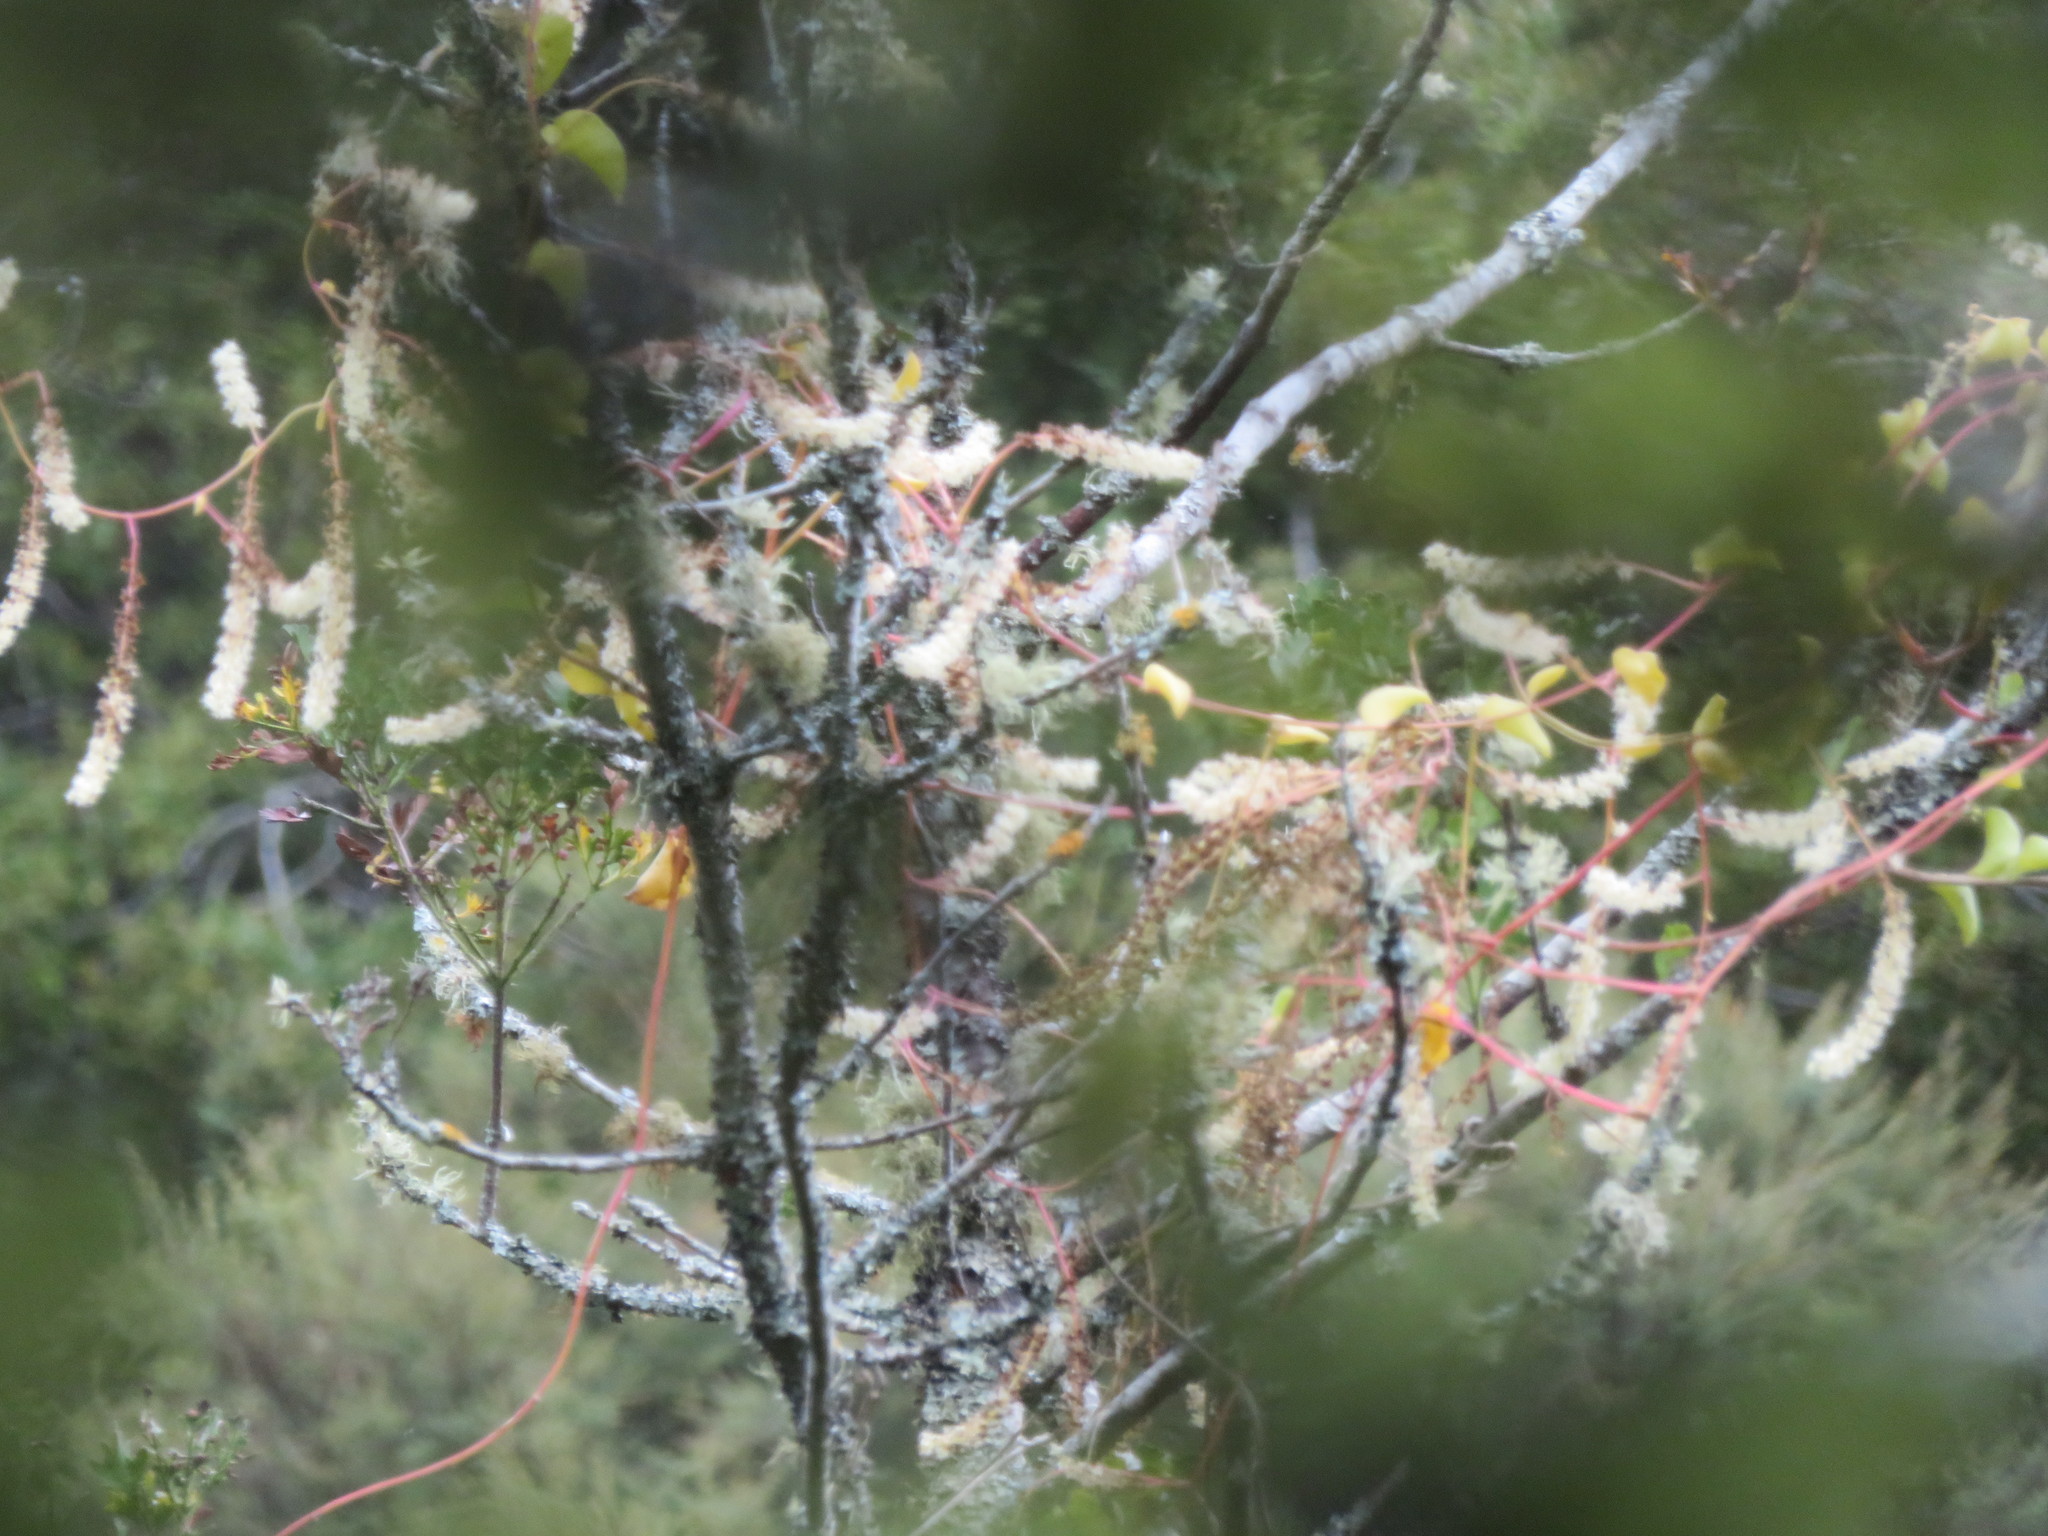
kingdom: Plantae
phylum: Tracheophyta
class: Magnoliopsida
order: Caryophyllales
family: Basellaceae
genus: Anredera
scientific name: Anredera cordifolia
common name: Heartleaf madeiravine
